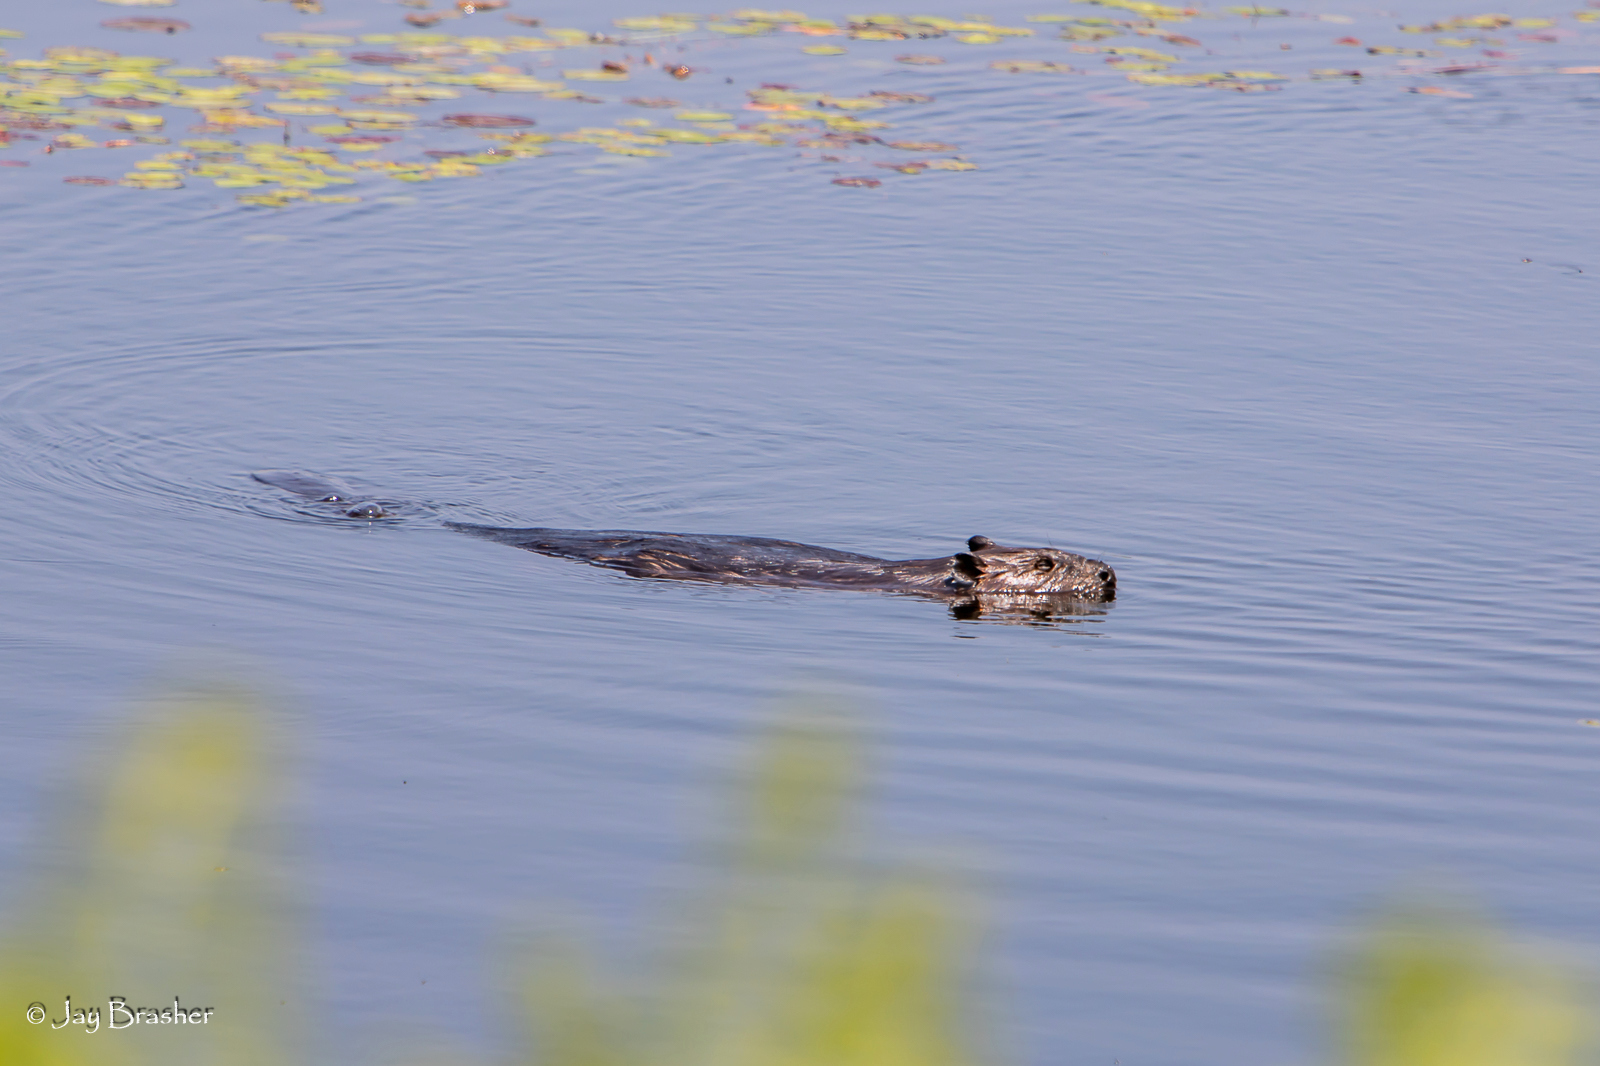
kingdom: Animalia
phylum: Chordata
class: Mammalia
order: Rodentia
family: Castoridae
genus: Castor
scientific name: Castor canadensis
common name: American beaver
